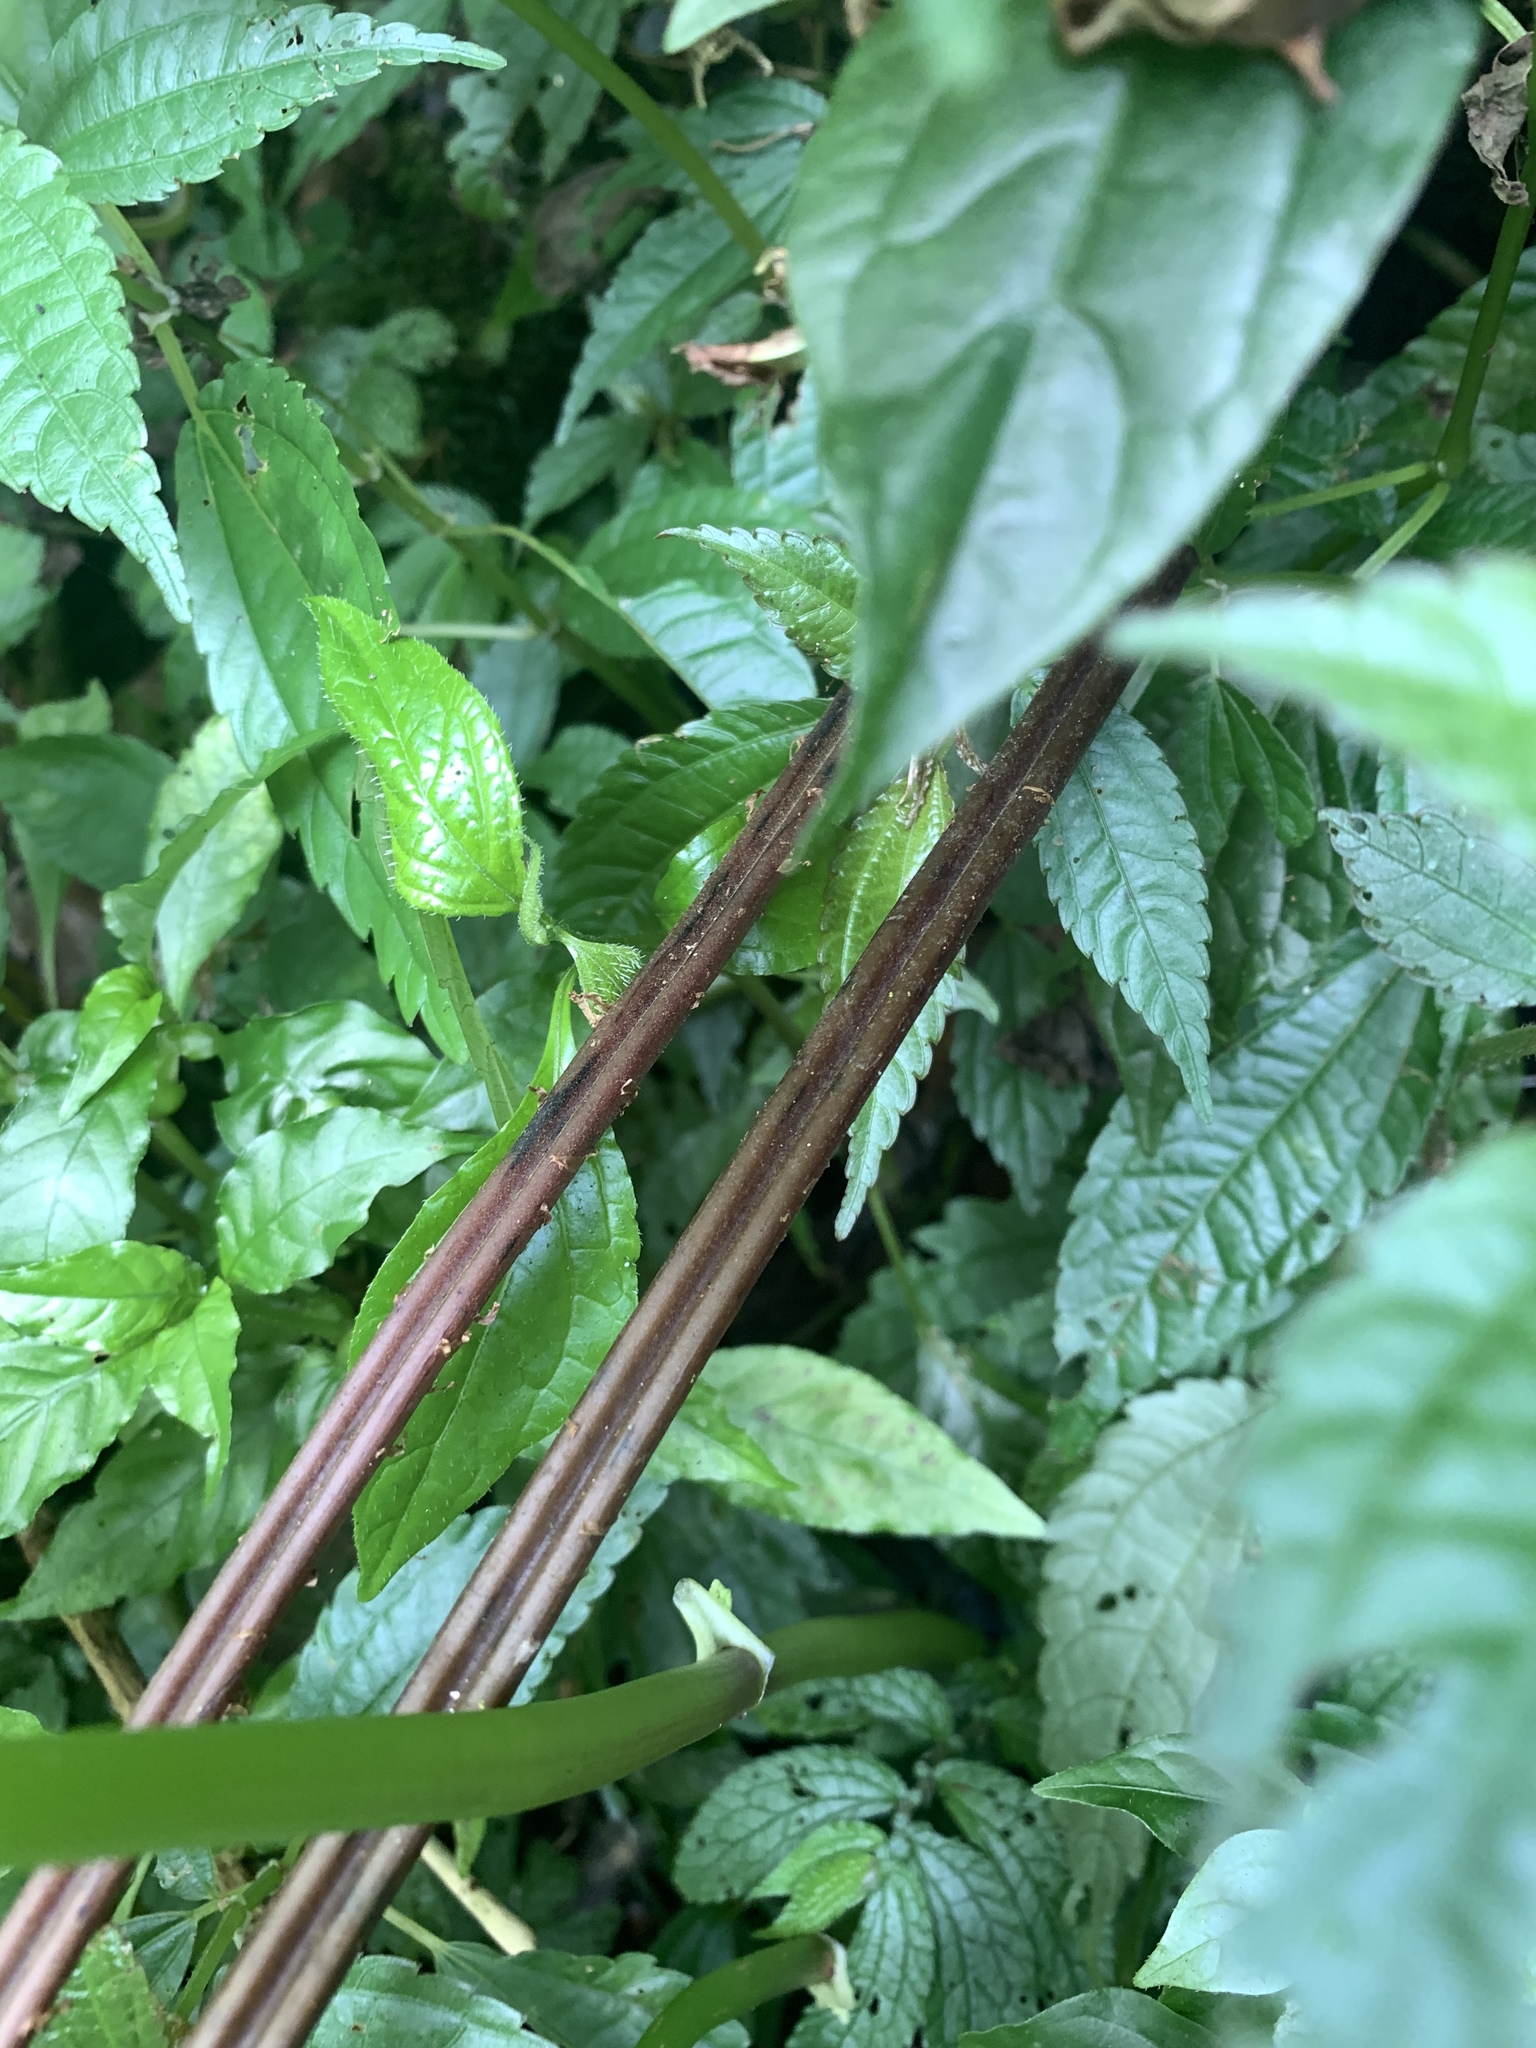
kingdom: Plantae
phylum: Tracheophyta
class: Polypodiopsida
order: Polypodiales
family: Athyriaceae
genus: Cornopteris
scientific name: Cornopteris banajaoensis
